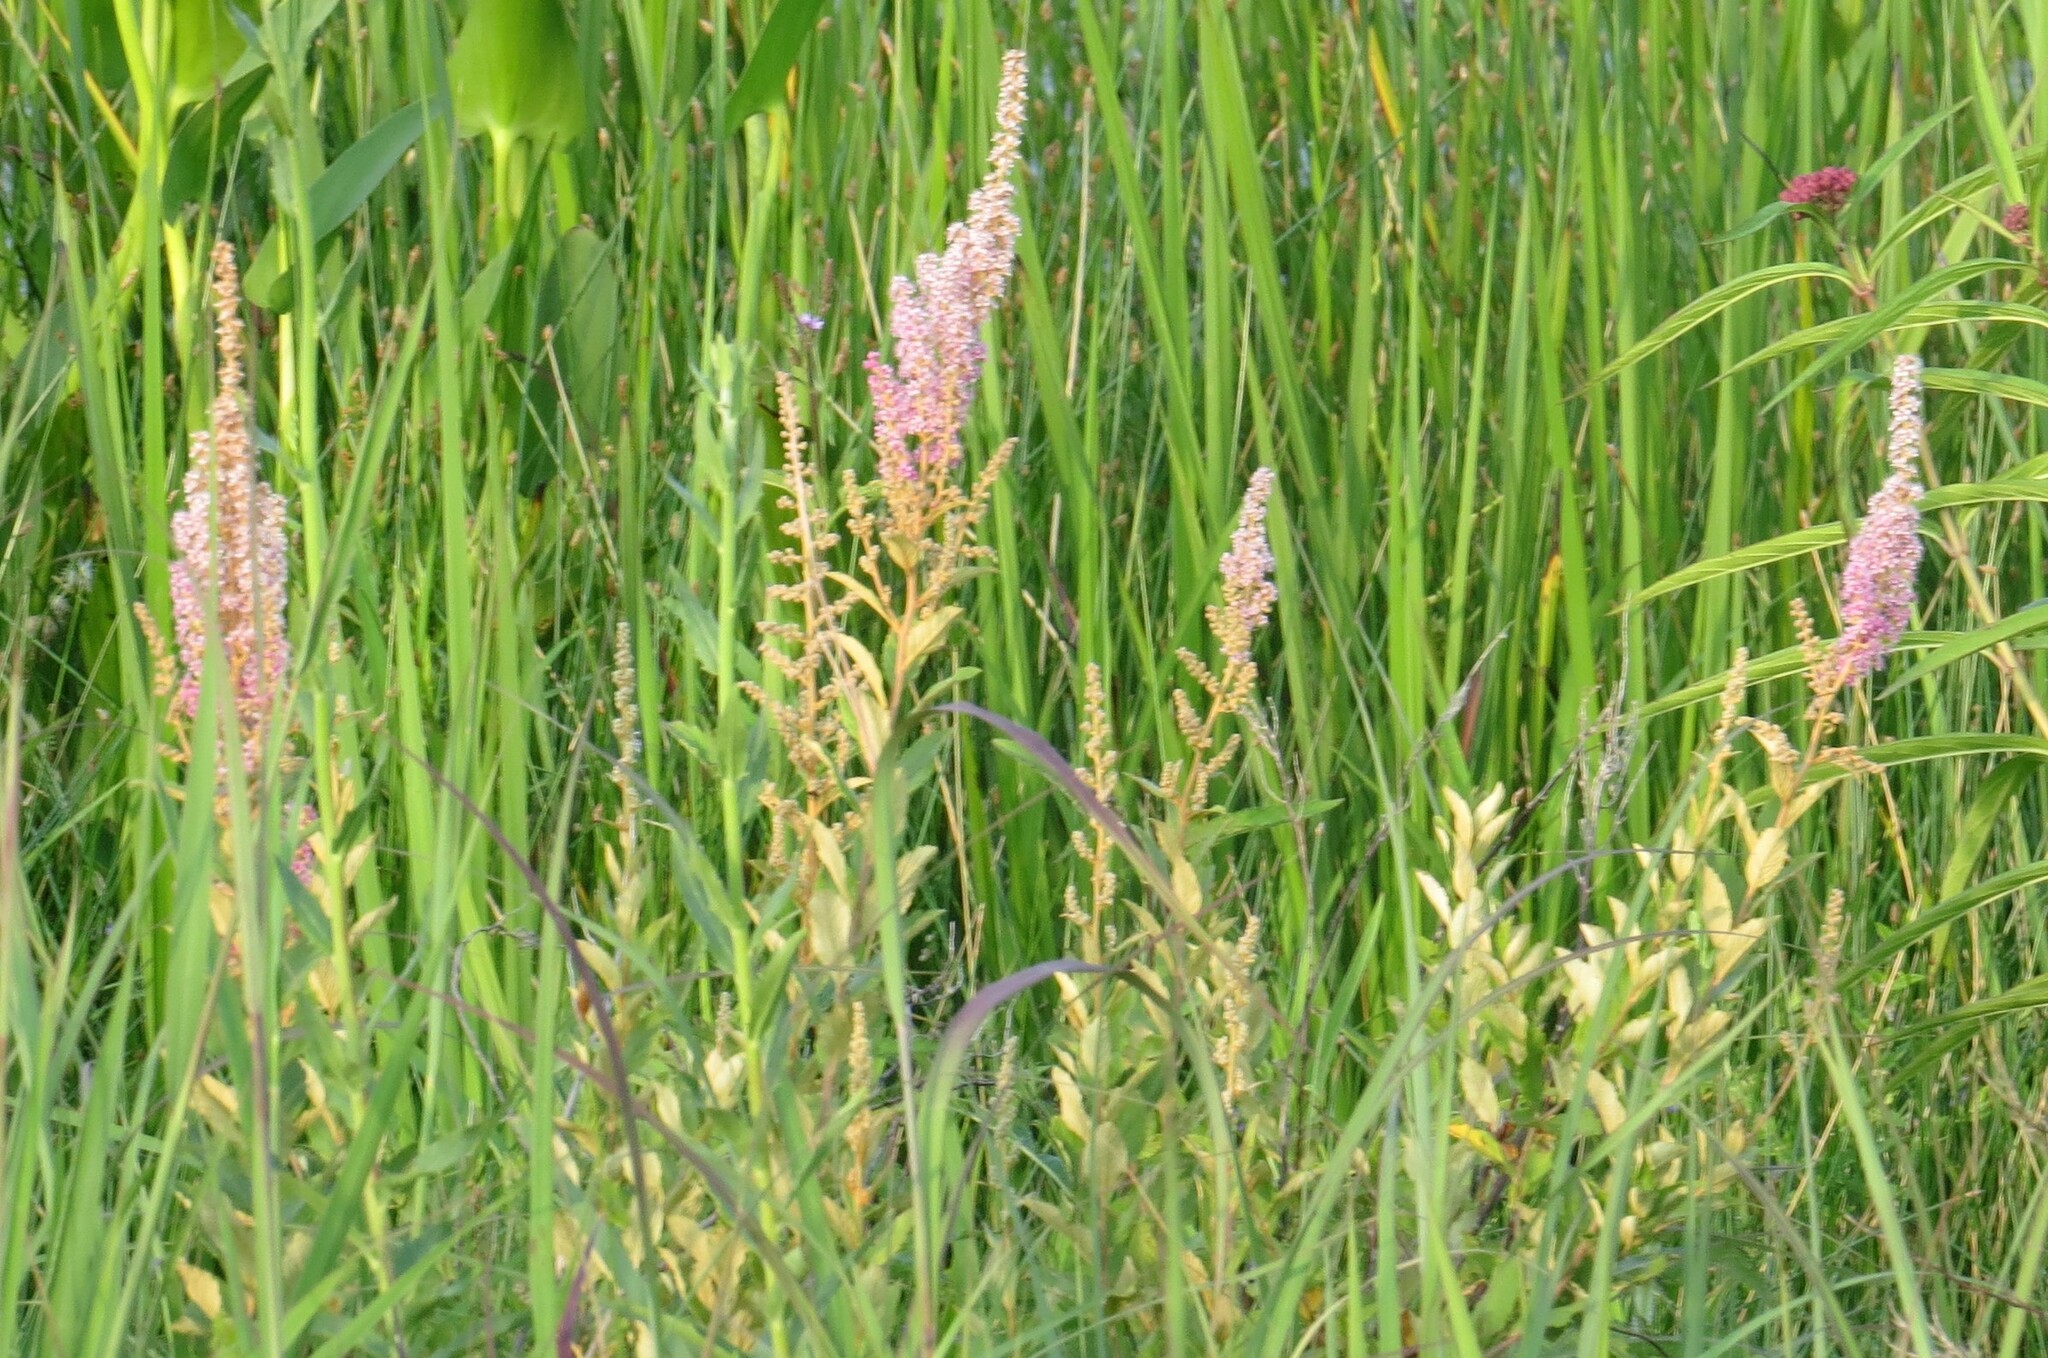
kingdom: Plantae
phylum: Tracheophyta
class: Magnoliopsida
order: Rosales
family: Rosaceae
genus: Spiraea
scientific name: Spiraea tomentosa
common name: Hardhack
